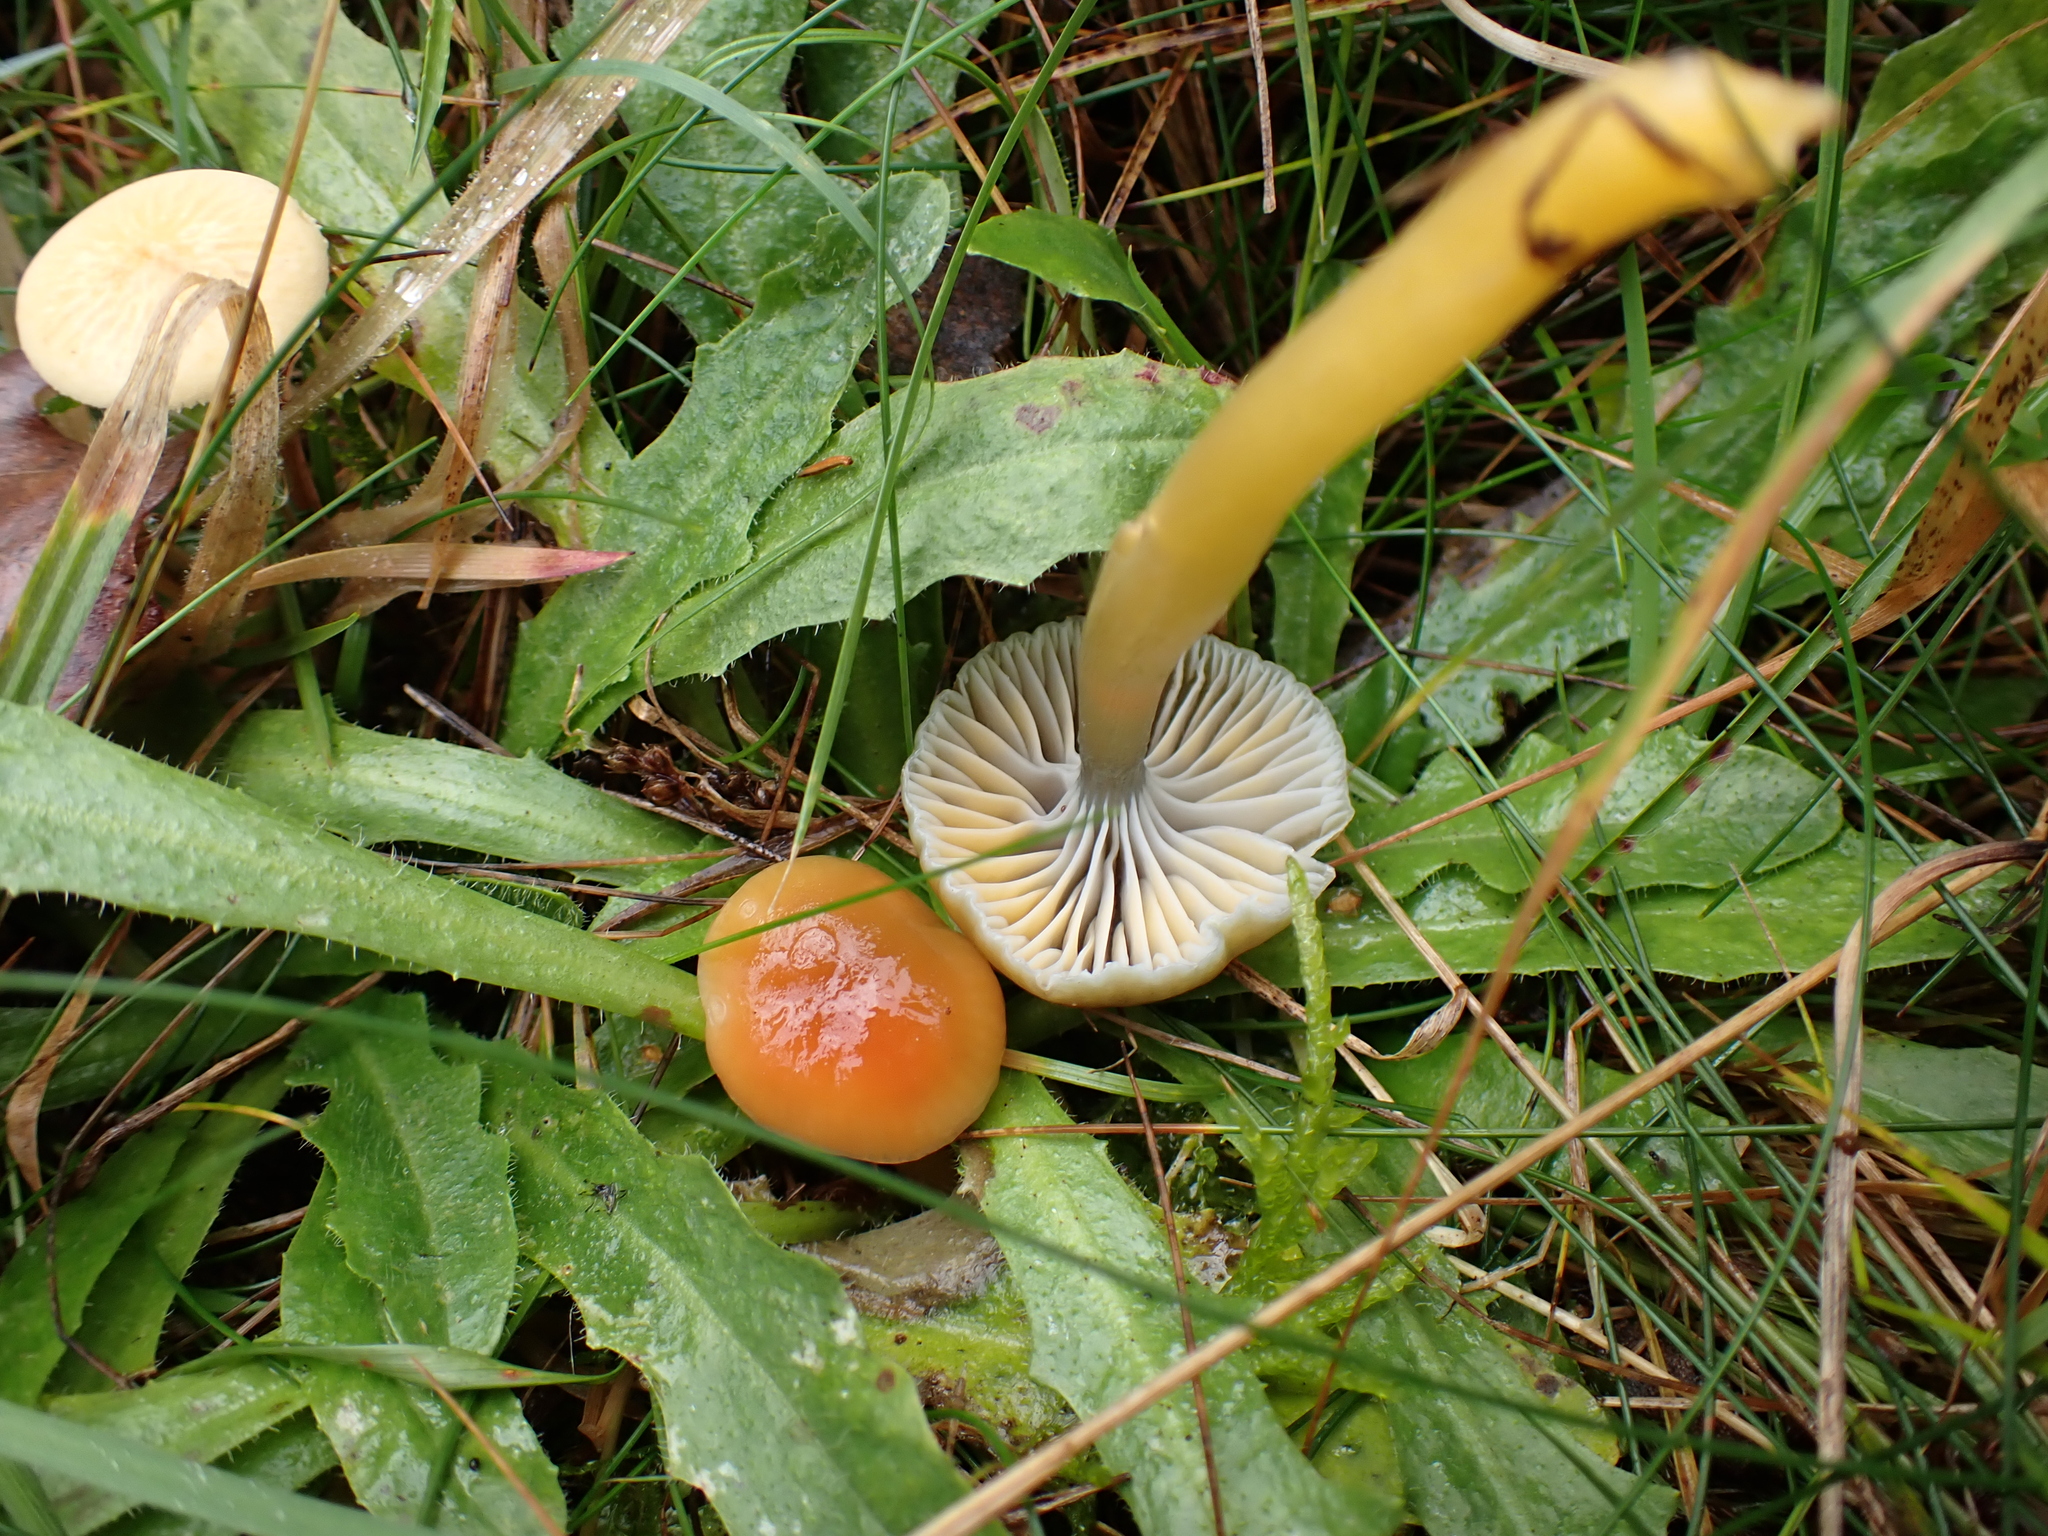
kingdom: Fungi
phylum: Basidiomycota
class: Agaricomycetes
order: Agaricales
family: Hygrophoraceae
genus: Gliophorus
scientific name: Gliophorus laetus
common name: Heath waxcap
